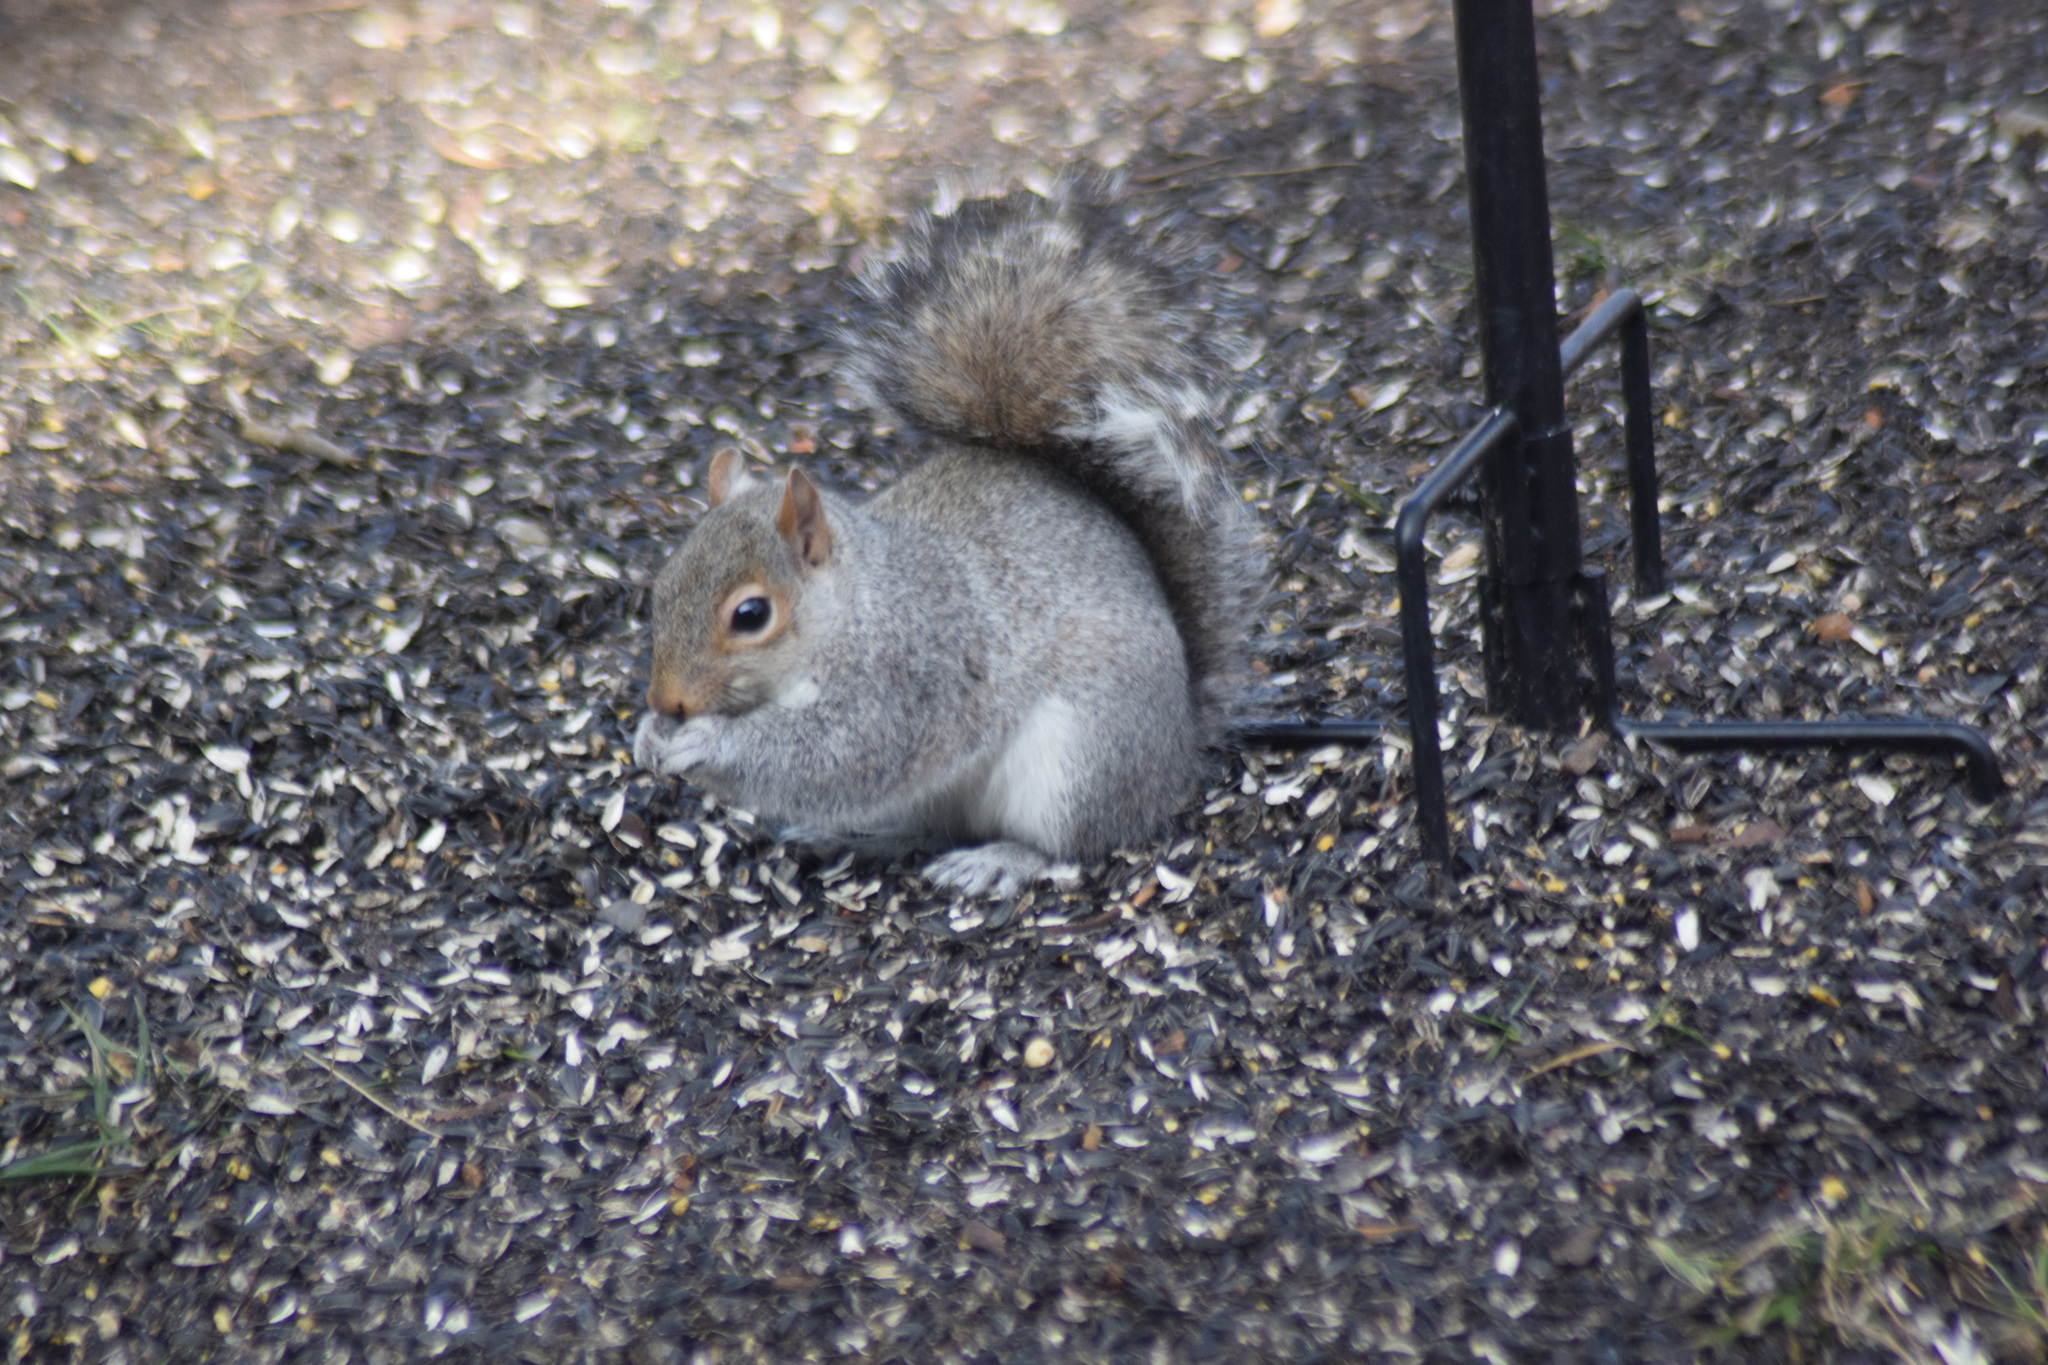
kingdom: Animalia
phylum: Chordata
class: Mammalia
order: Rodentia
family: Sciuridae
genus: Sciurus
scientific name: Sciurus carolinensis
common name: Eastern gray squirrel
